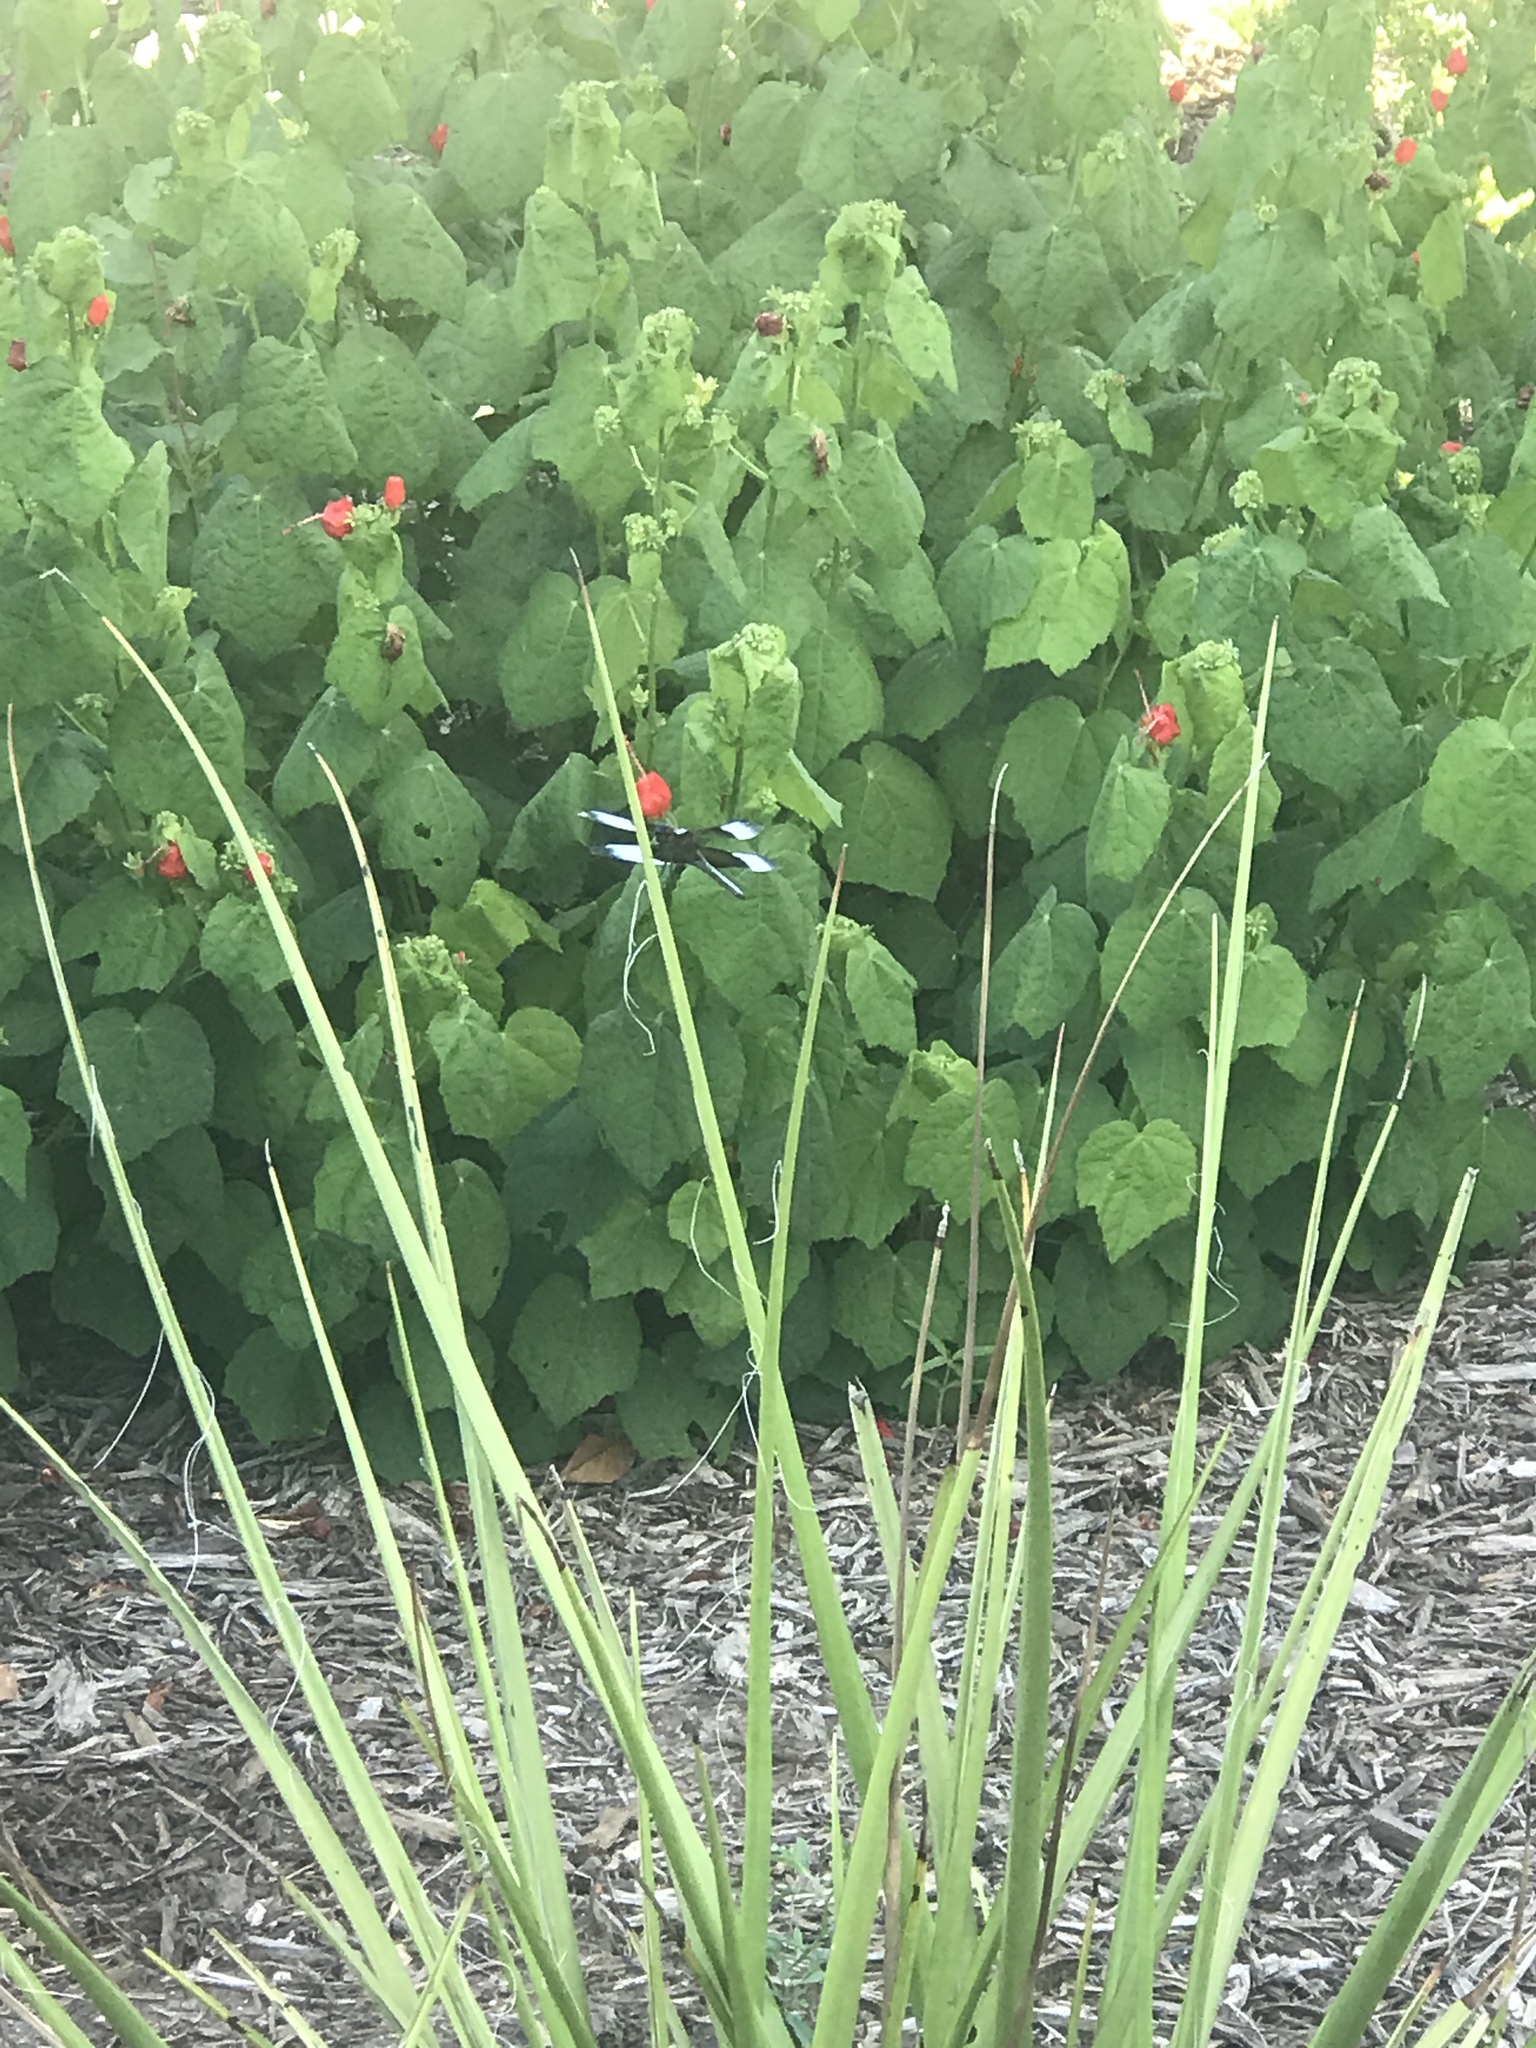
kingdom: Animalia
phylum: Arthropoda
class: Insecta
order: Odonata
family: Libellulidae
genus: Libellula
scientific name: Libellula luctuosa
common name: Widow skimmer
